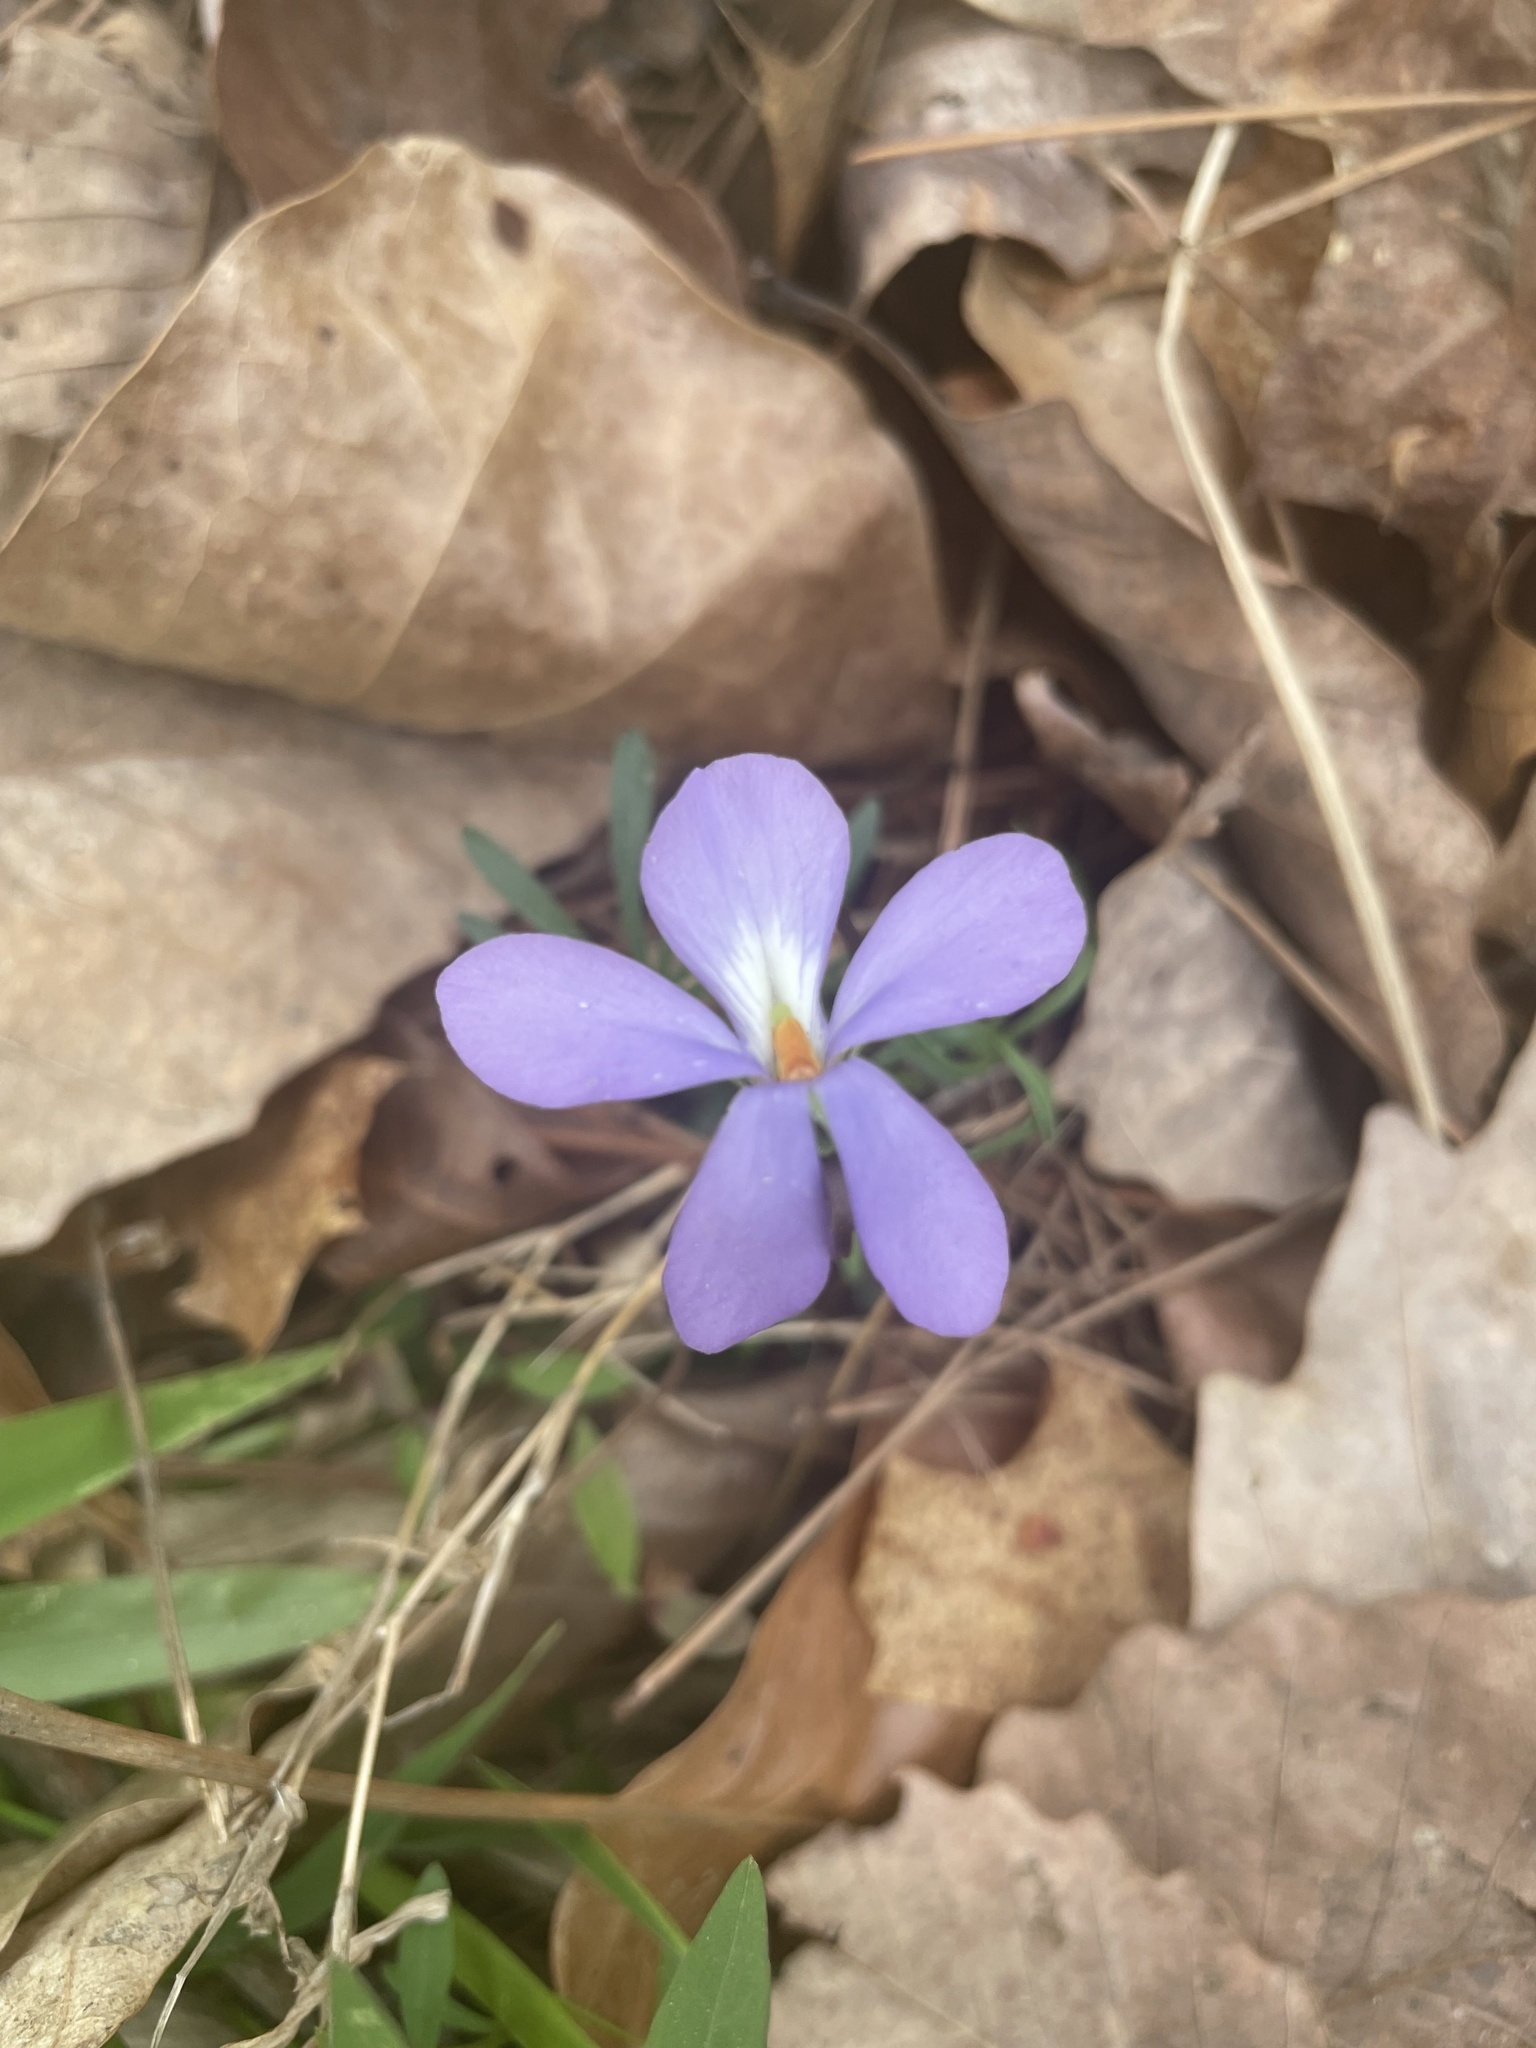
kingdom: Plantae
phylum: Tracheophyta
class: Magnoliopsida
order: Malpighiales
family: Violaceae
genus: Viola
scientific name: Viola pedata
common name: Pansy violet
